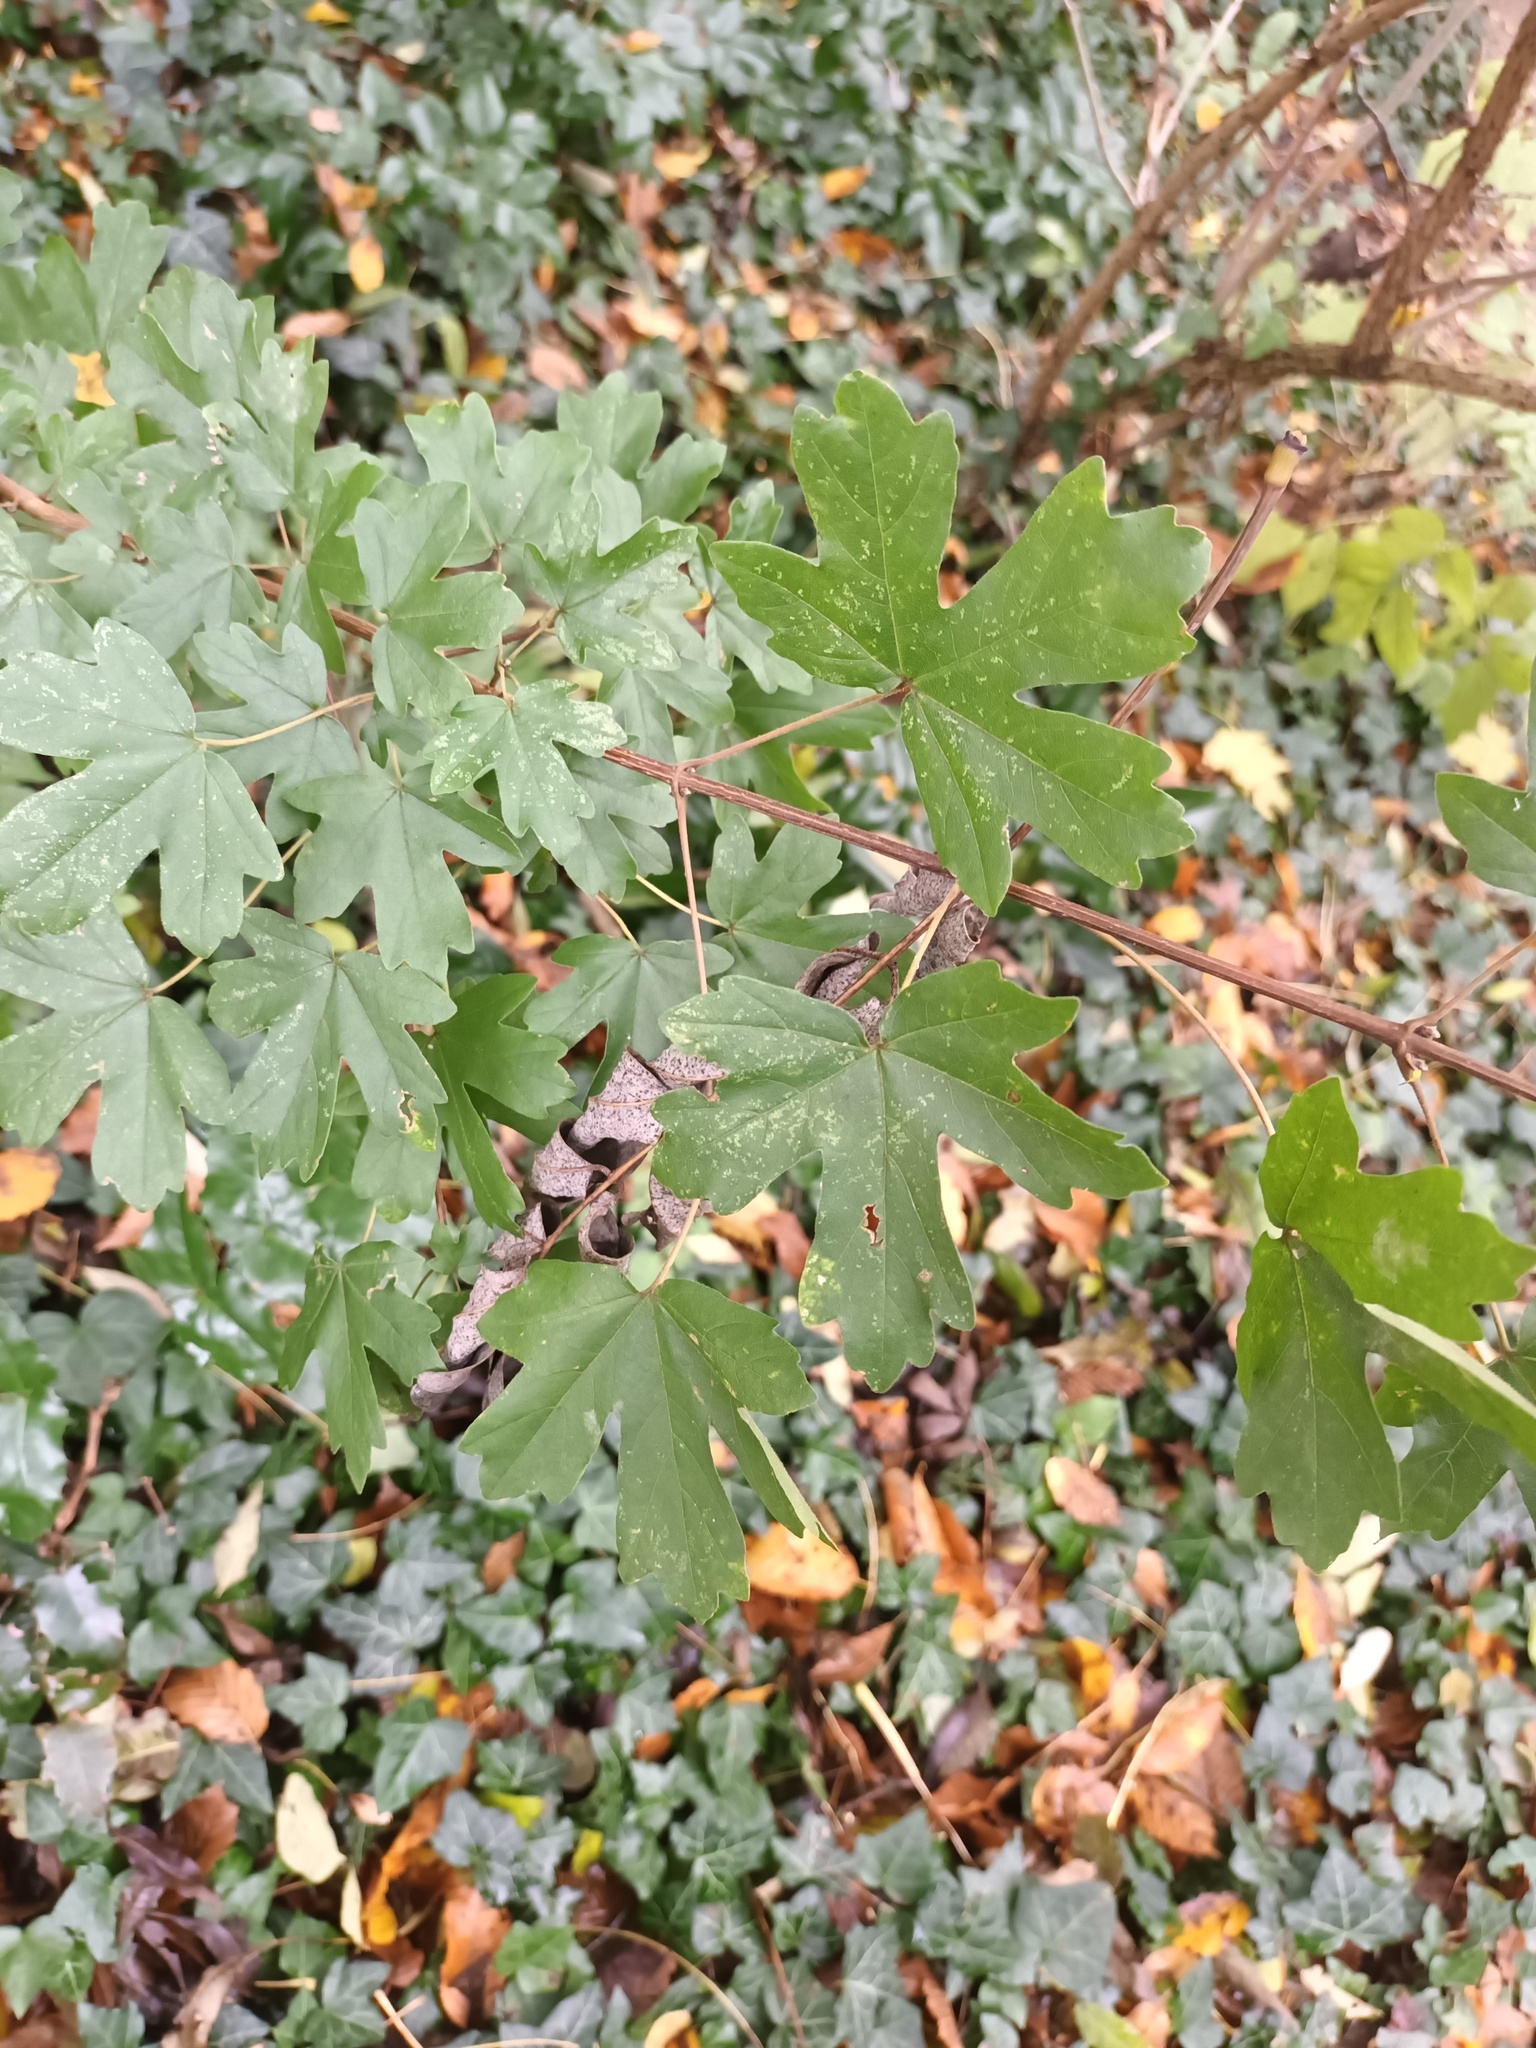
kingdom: Plantae
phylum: Tracheophyta
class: Magnoliopsida
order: Sapindales
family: Sapindaceae
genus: Acer
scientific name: Acer campestre
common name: Field maple
